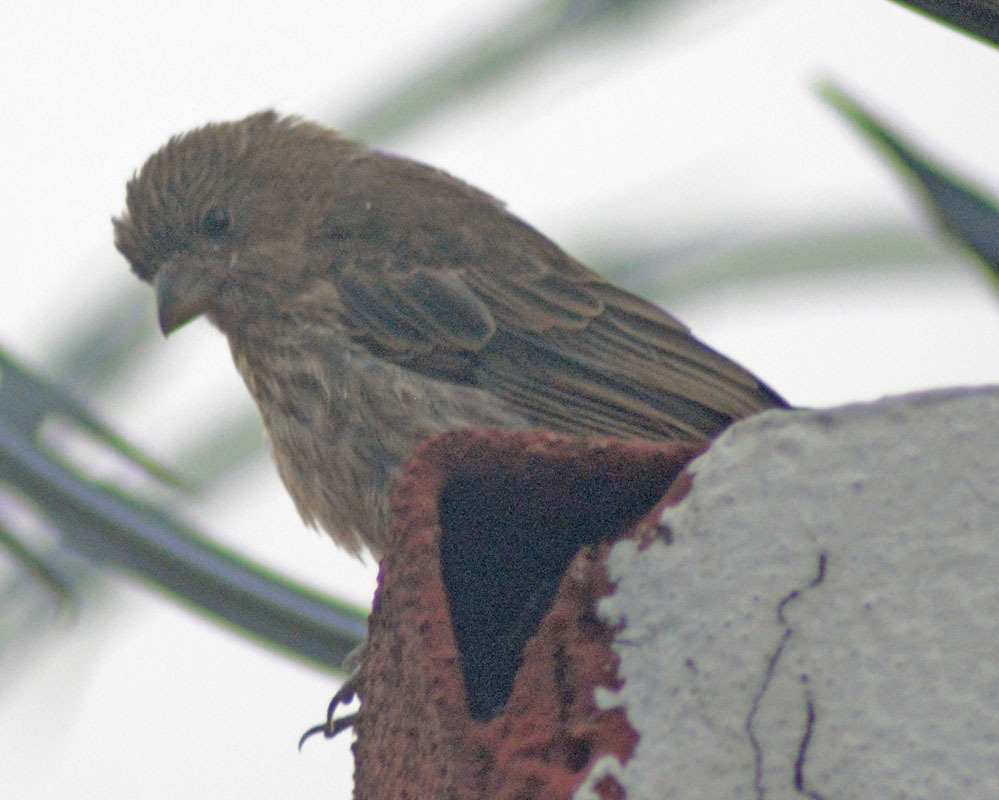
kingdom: Animalia
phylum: Chordata
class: Aves
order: Passeriformes
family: Fringillidae
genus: Haemorhous
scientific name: Haemorhous mexicanus
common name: House finch
